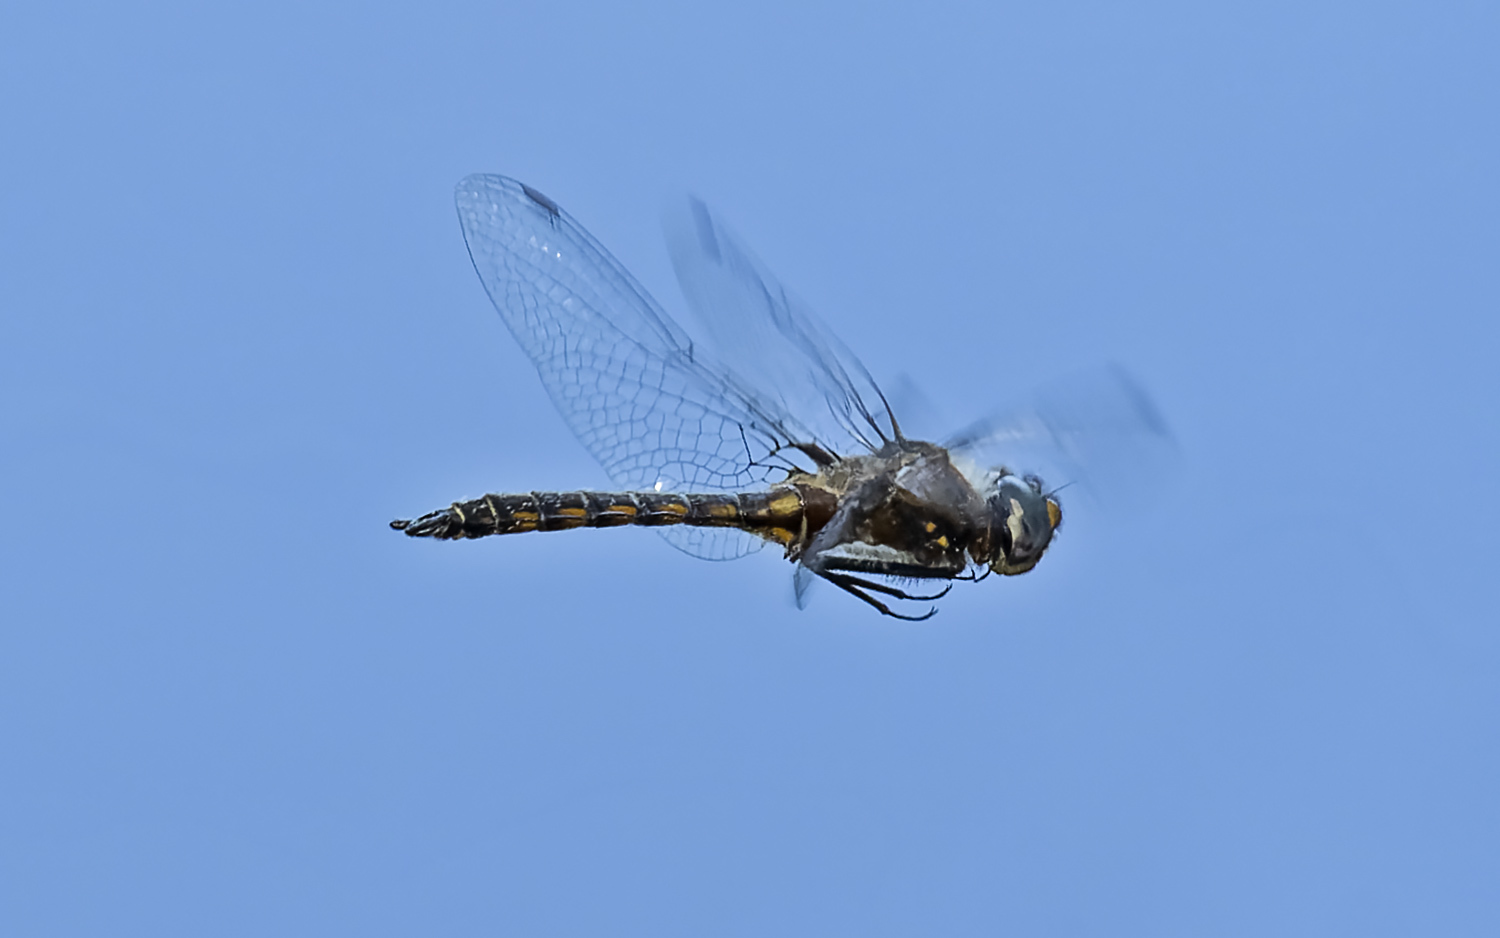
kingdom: Animalia
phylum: Arthropoda
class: Insecta
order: Odonata
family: Corduliidae
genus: Epitheca
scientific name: Epitheca cynosura
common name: Common baskettail
